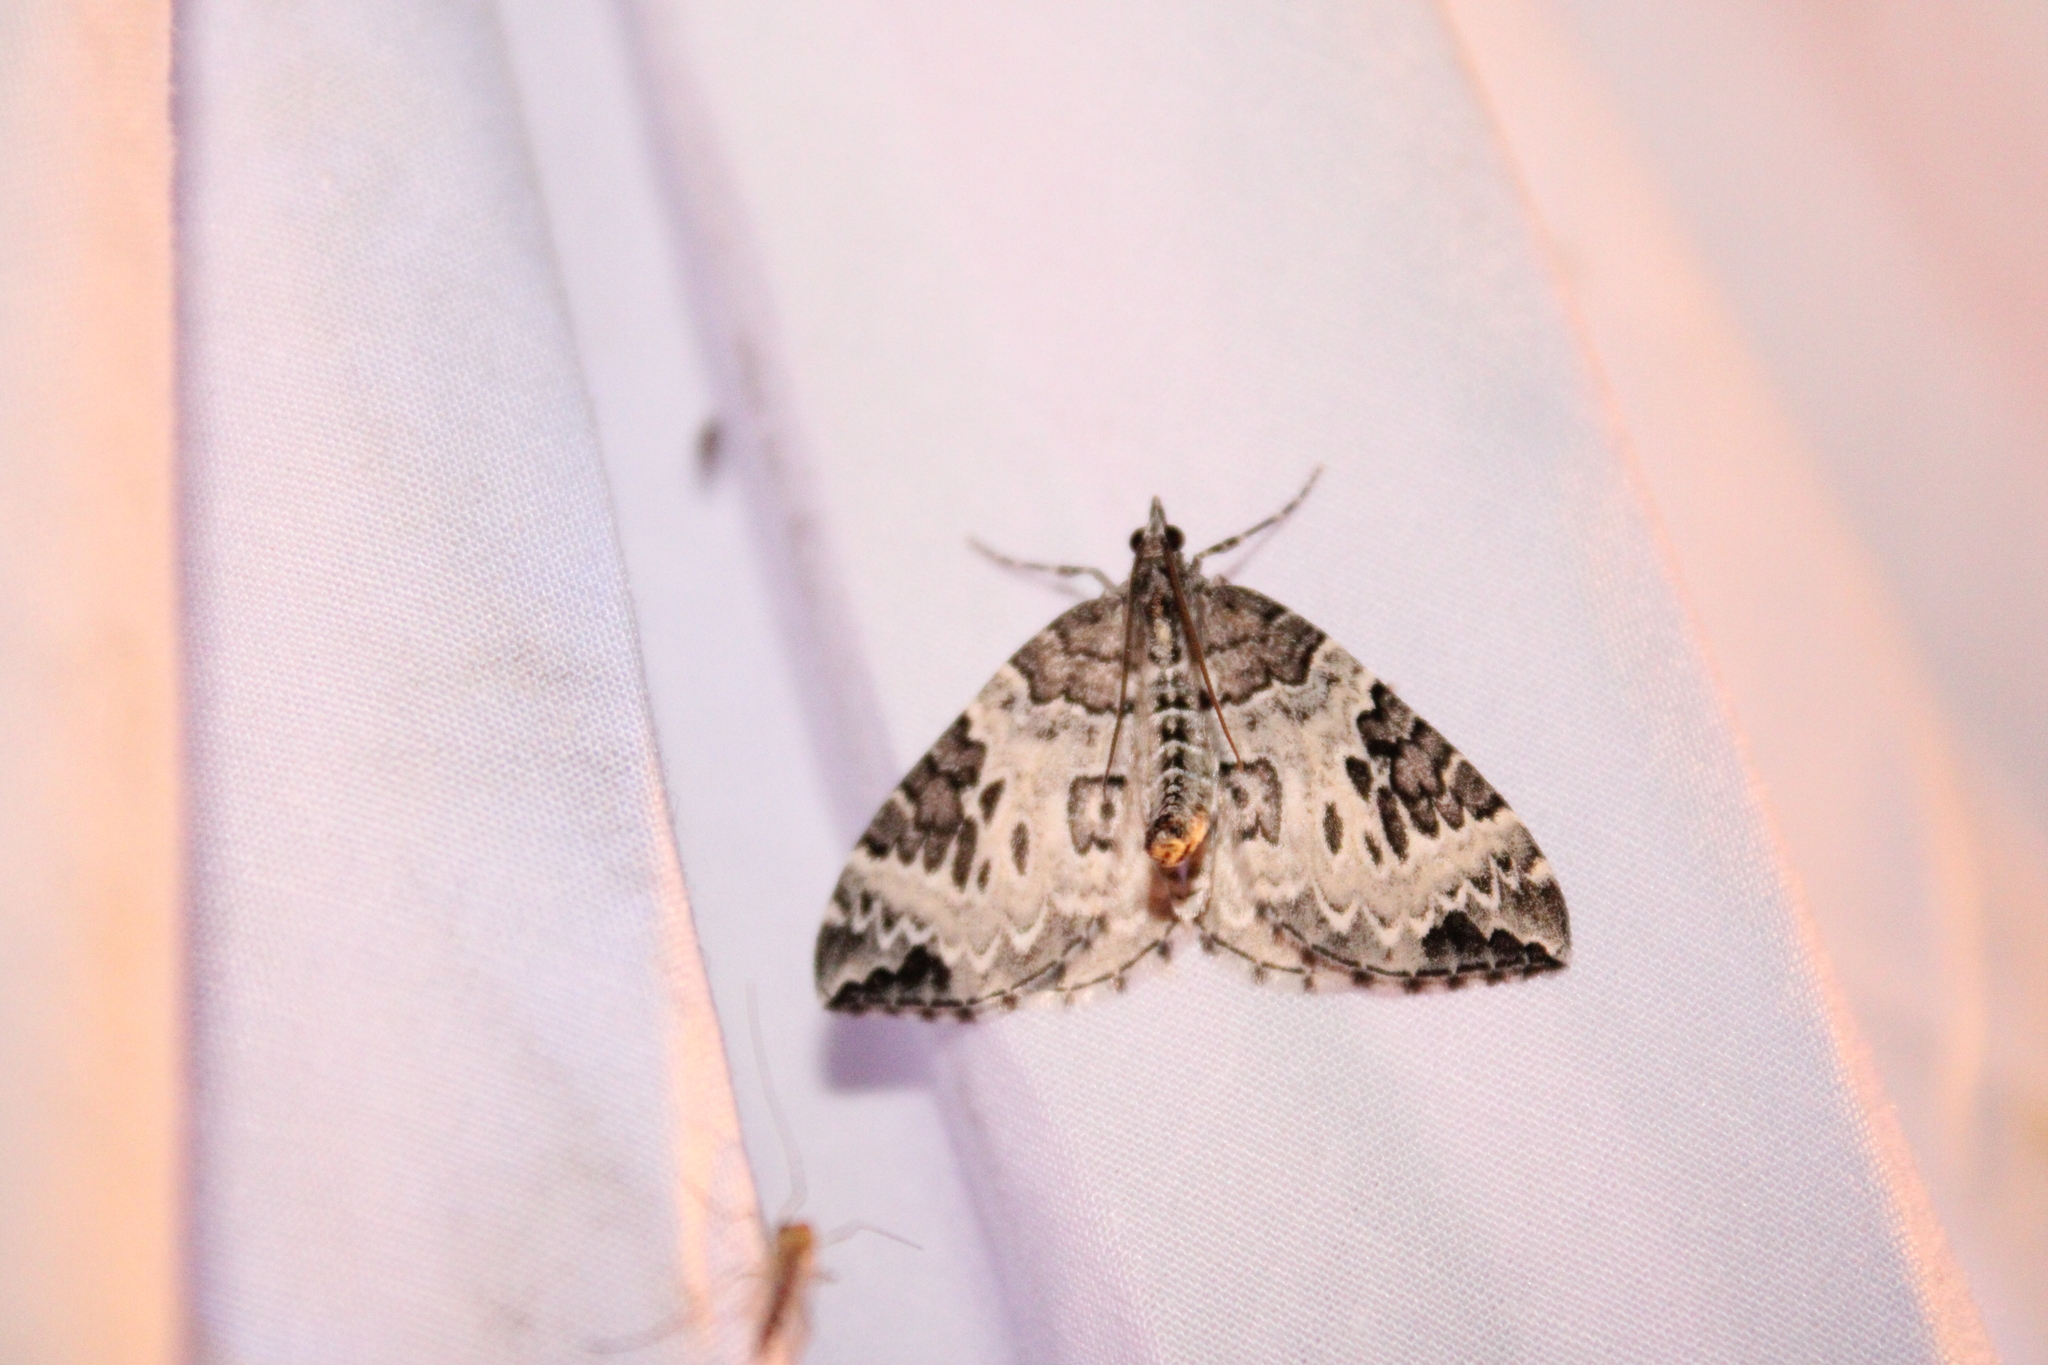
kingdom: Animalia
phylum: Arthropoda
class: Insecta
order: Lepidoptera
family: Geometridae
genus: Eulithis
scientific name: Eulithis explanata
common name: White eulithis
